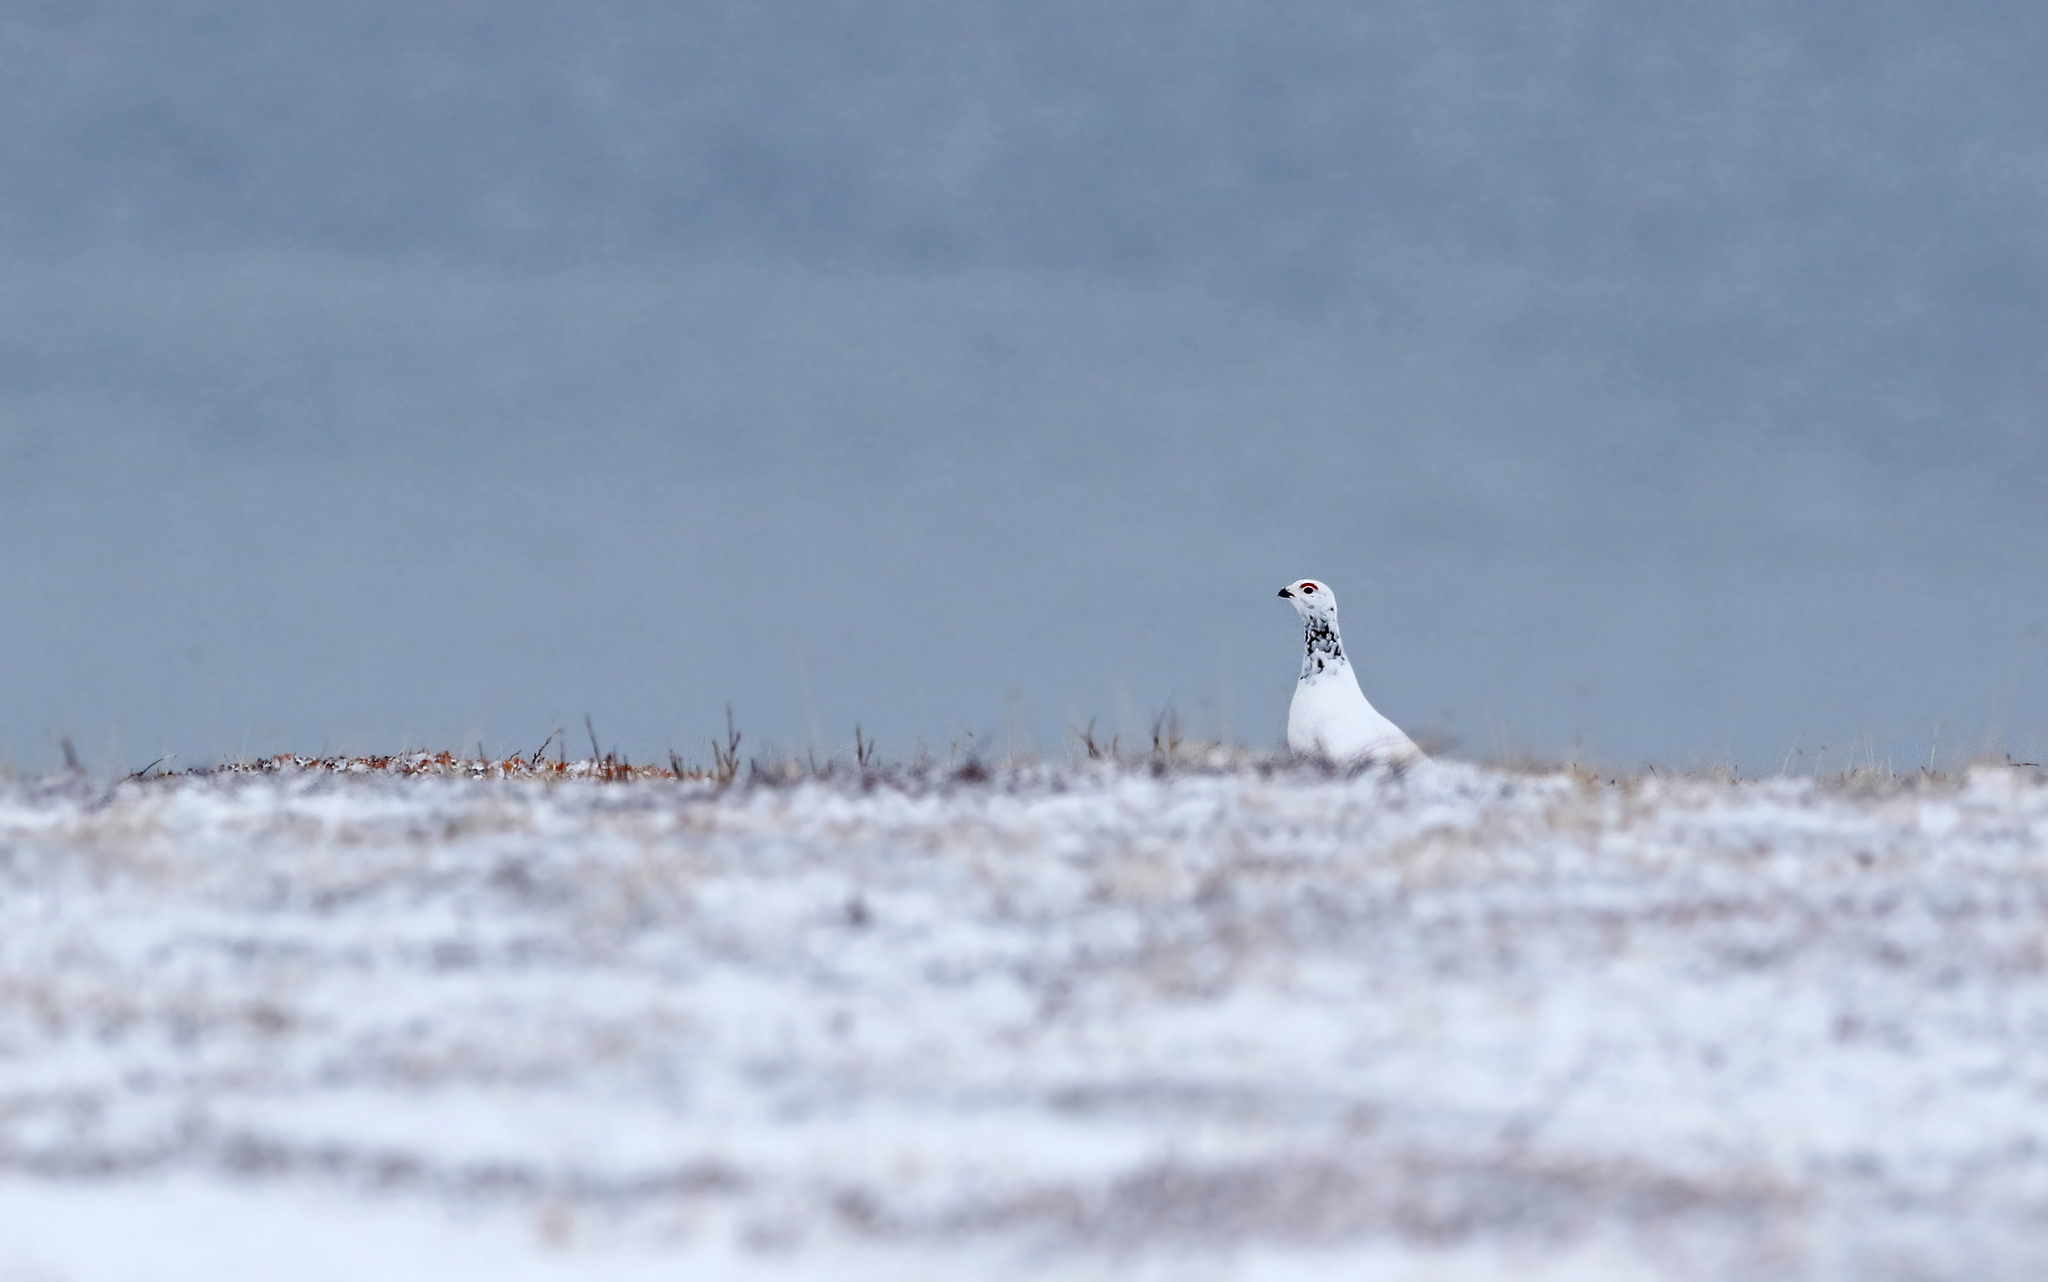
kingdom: Animalia
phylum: Chordata
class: Aves
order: Galliformes
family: Phasianidae
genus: Lagopus
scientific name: Lagopus lagopus
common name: Willow ptarmigan
